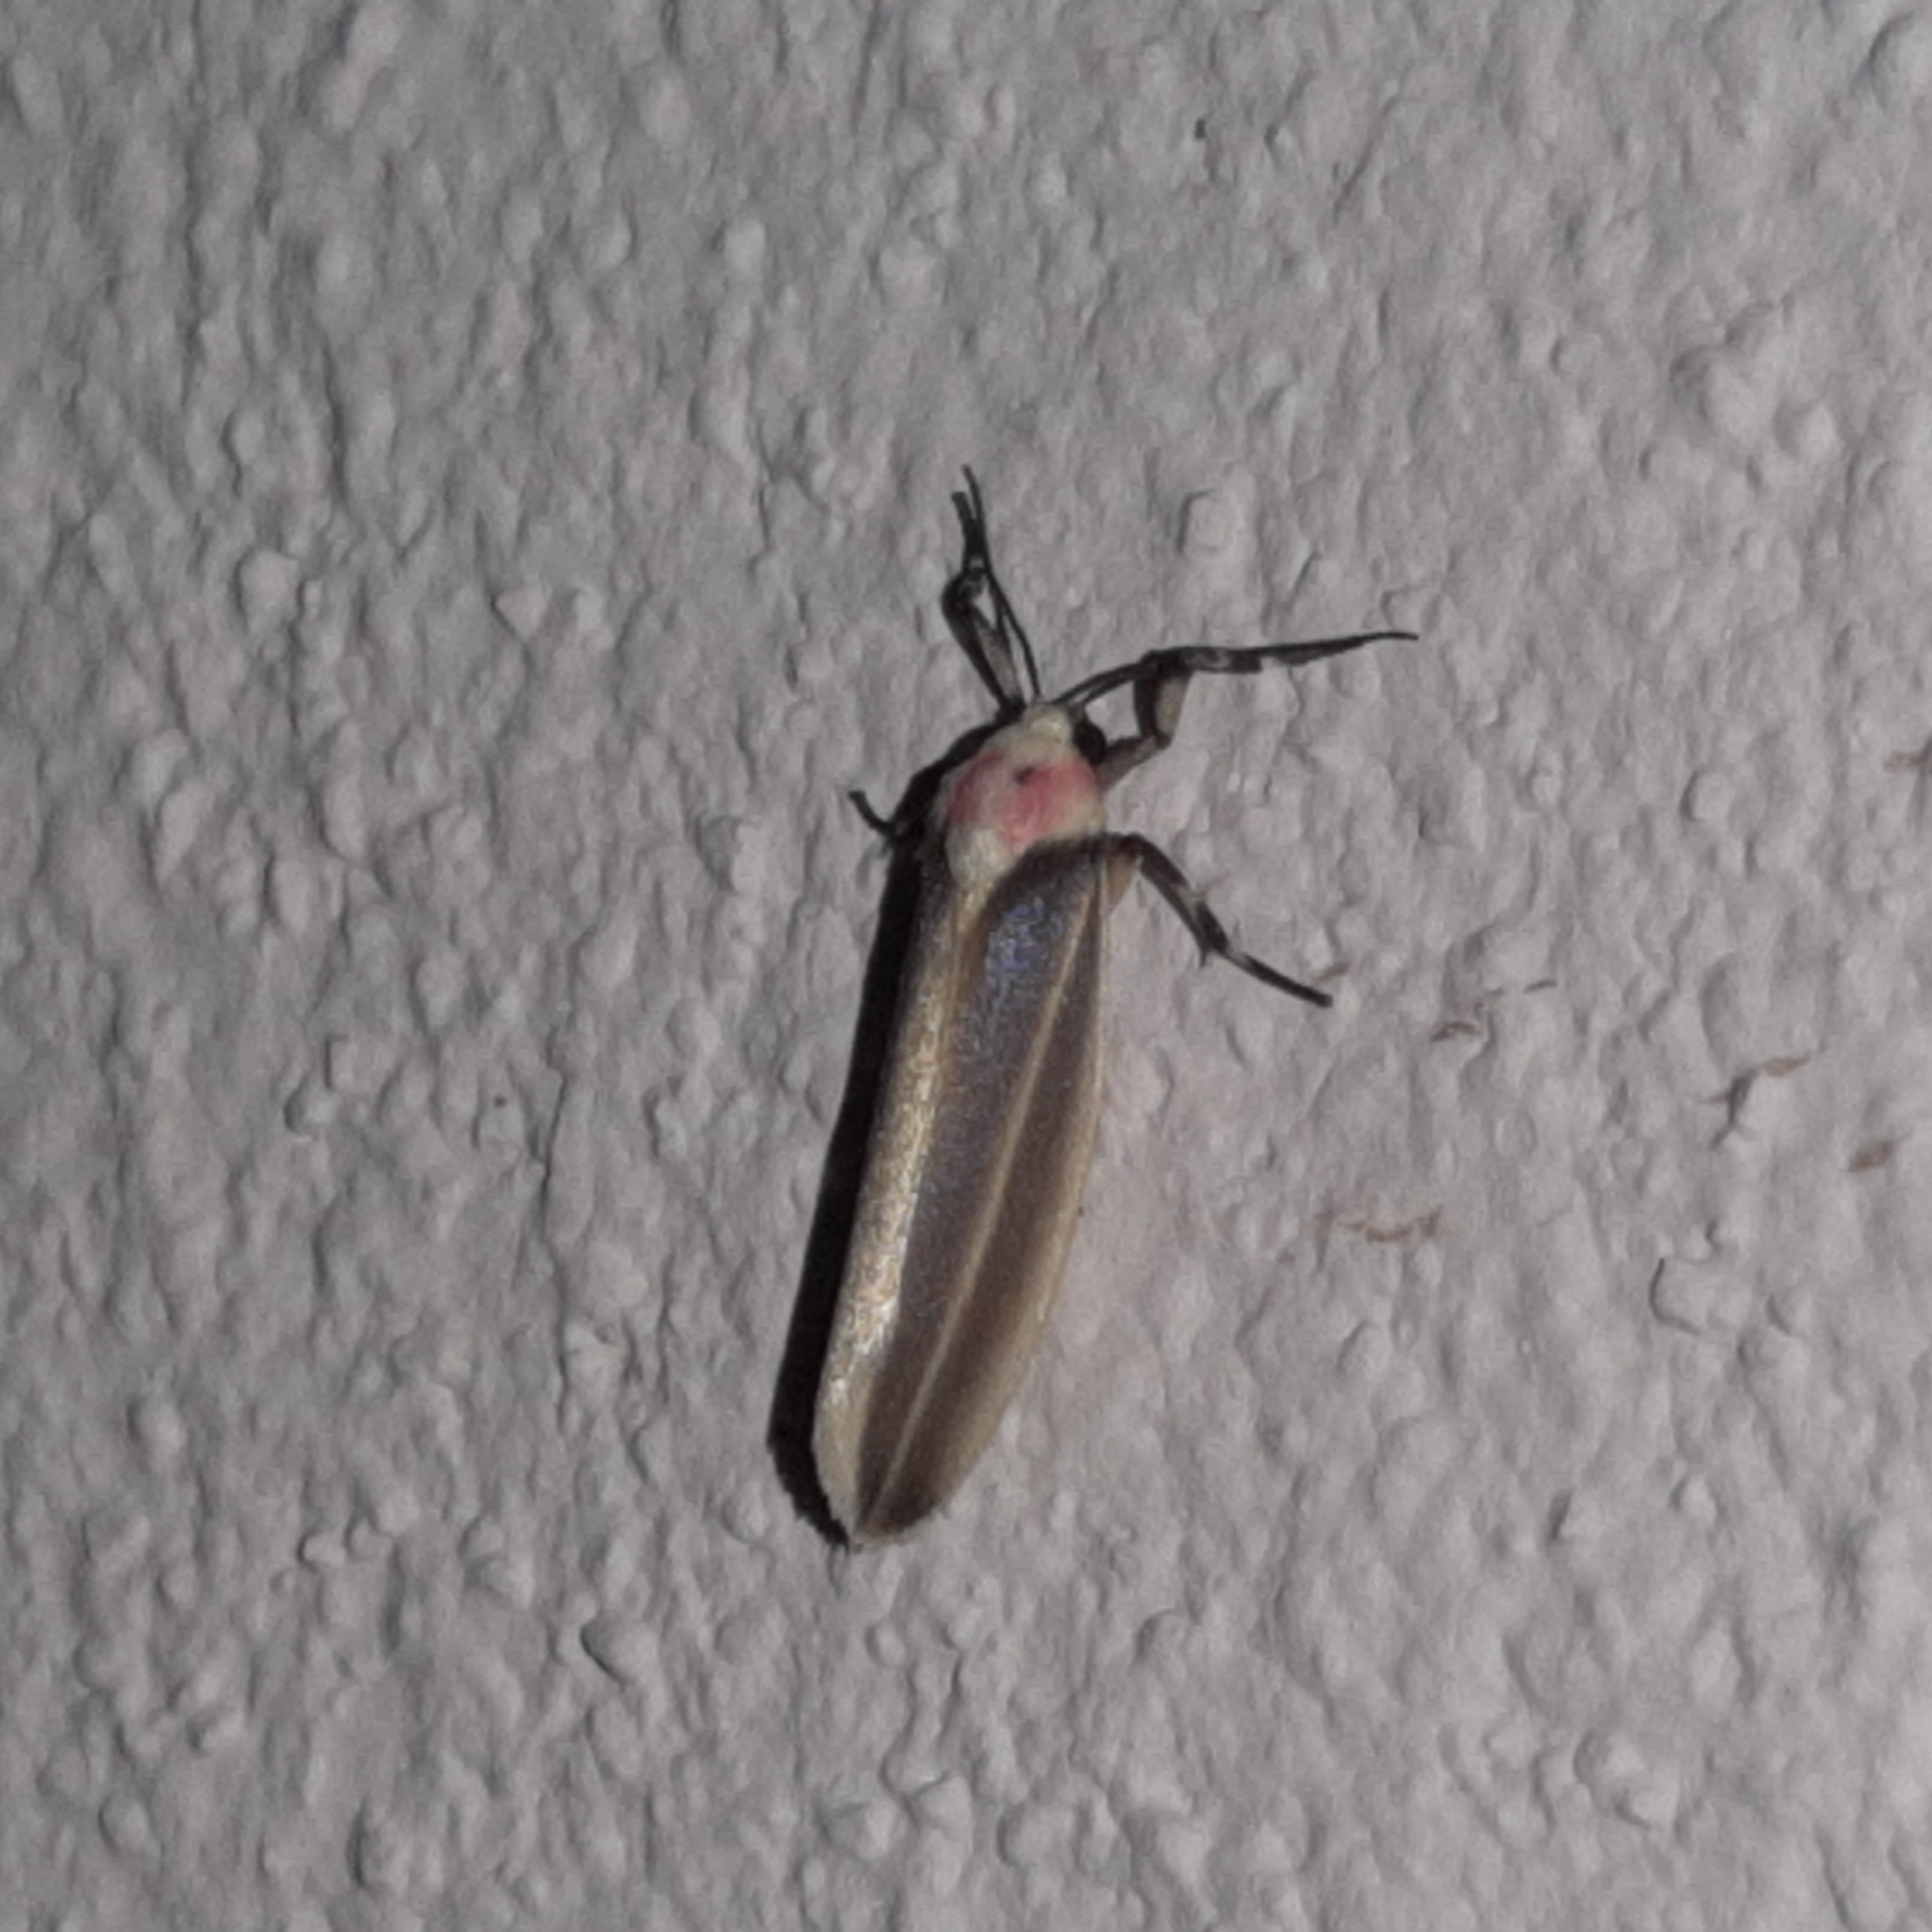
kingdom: Animalia
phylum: Arthropoda
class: Insecta
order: Lepidoptera
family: Erebidae
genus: Rhabdatomis
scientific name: Rhabdatomis laudamia
